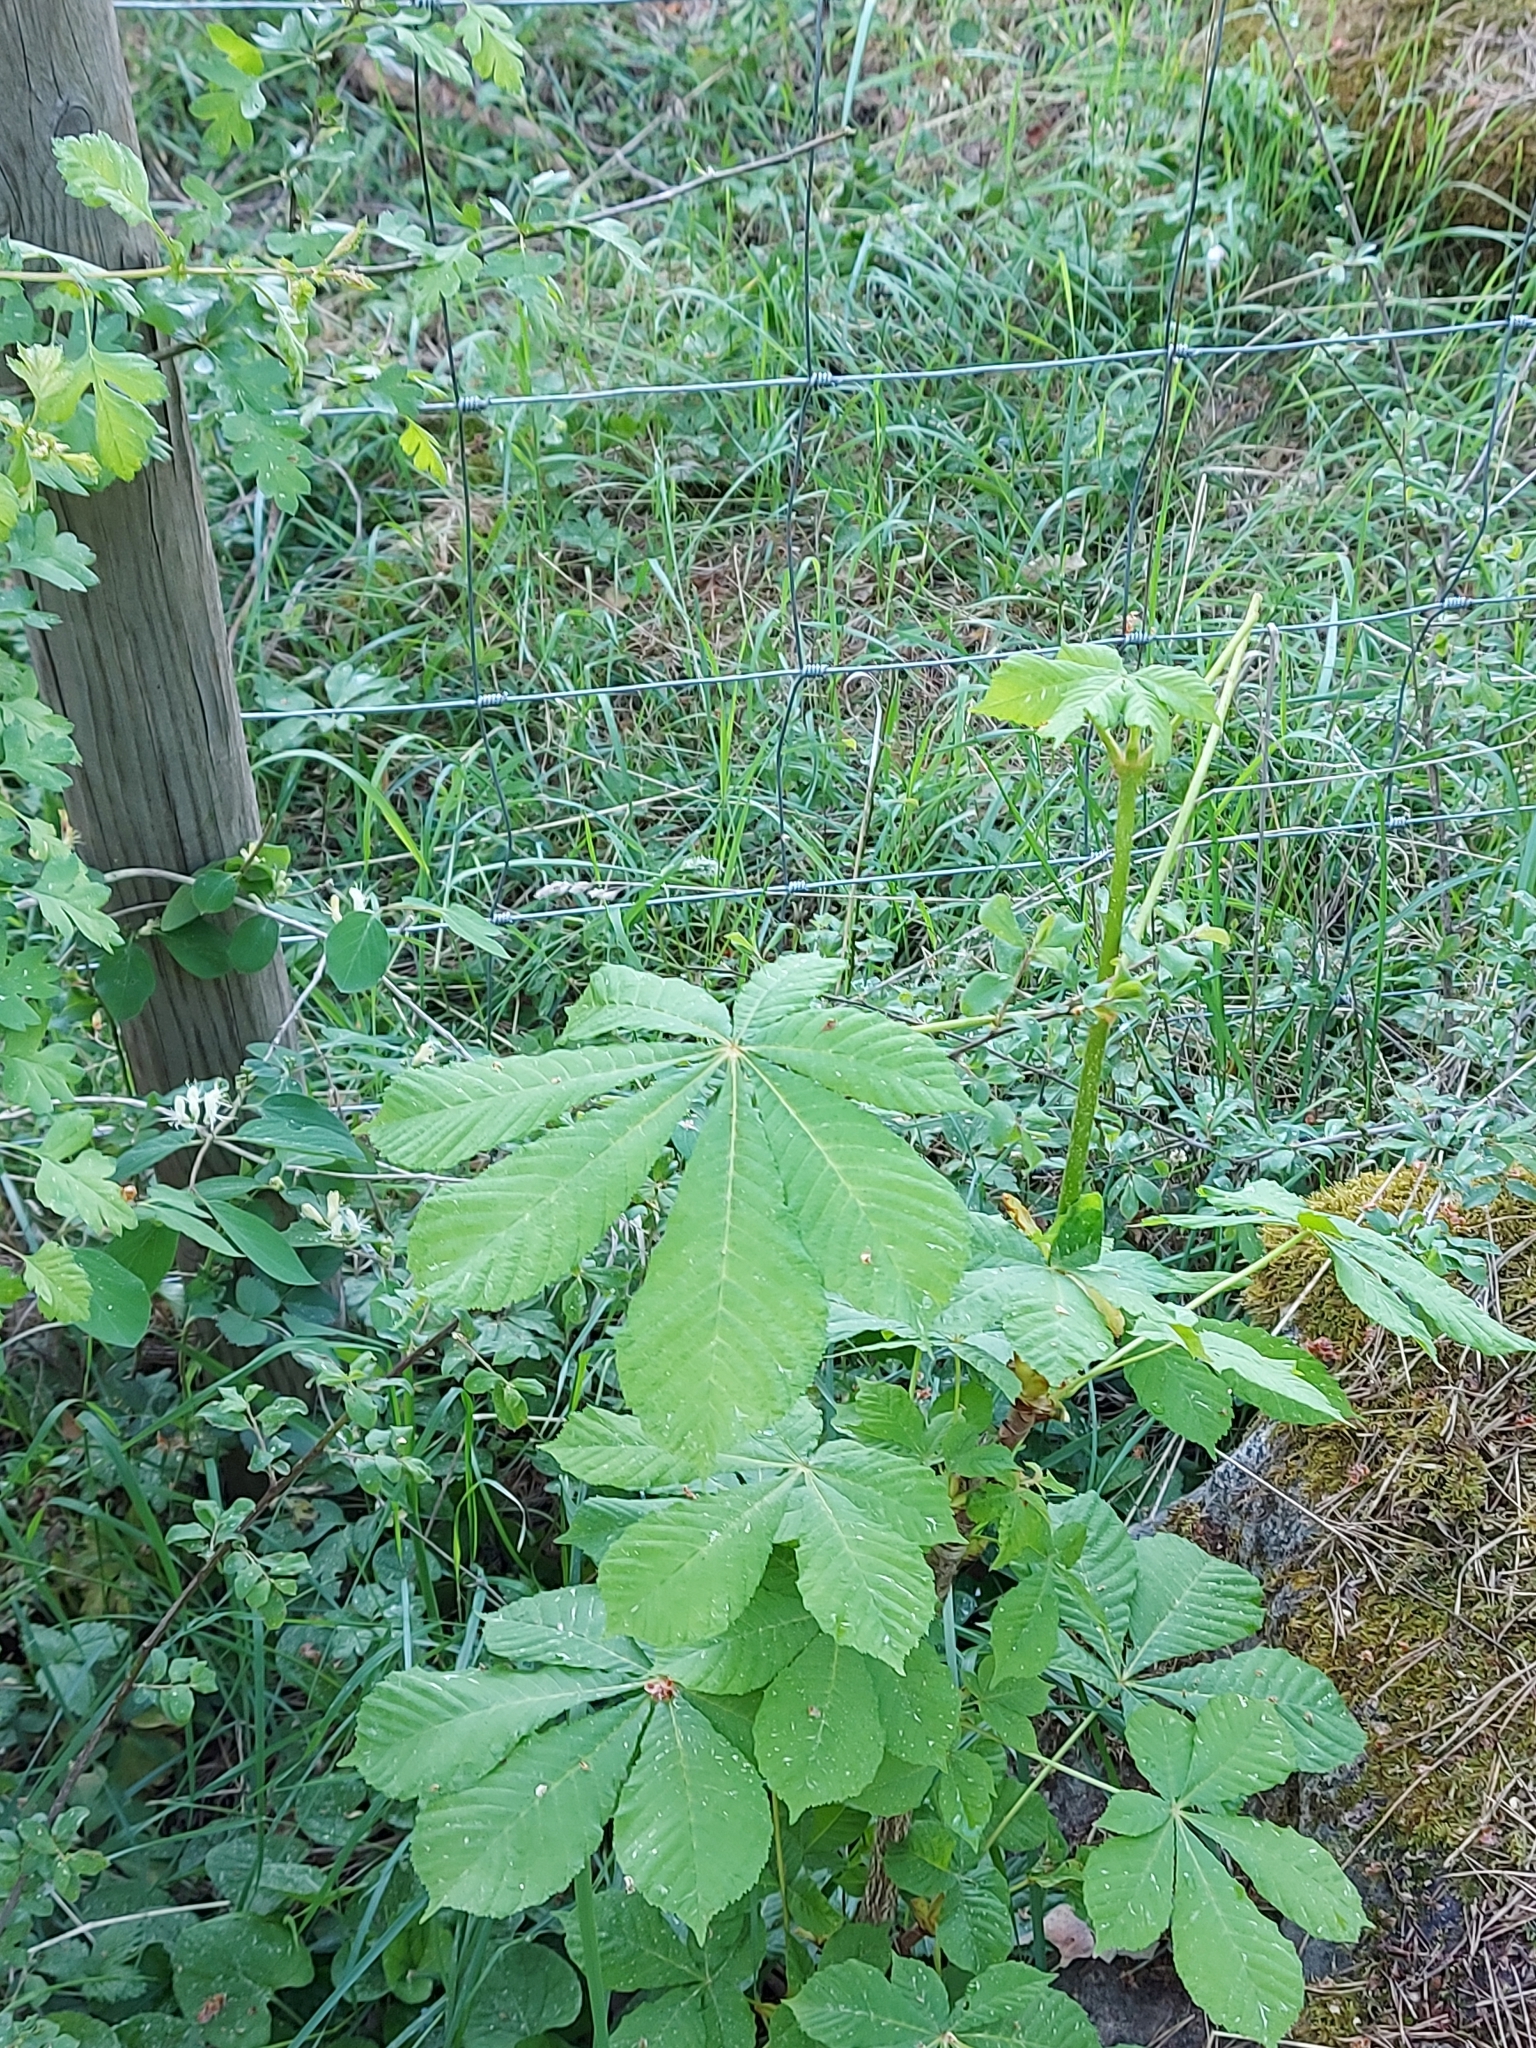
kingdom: Plantae
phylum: Tracheophyta
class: Magnoliopsida
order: Sapindales
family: Sapindaceae
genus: Aesculus
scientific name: Aesculus hippocastanum
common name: Horse-chestnut
